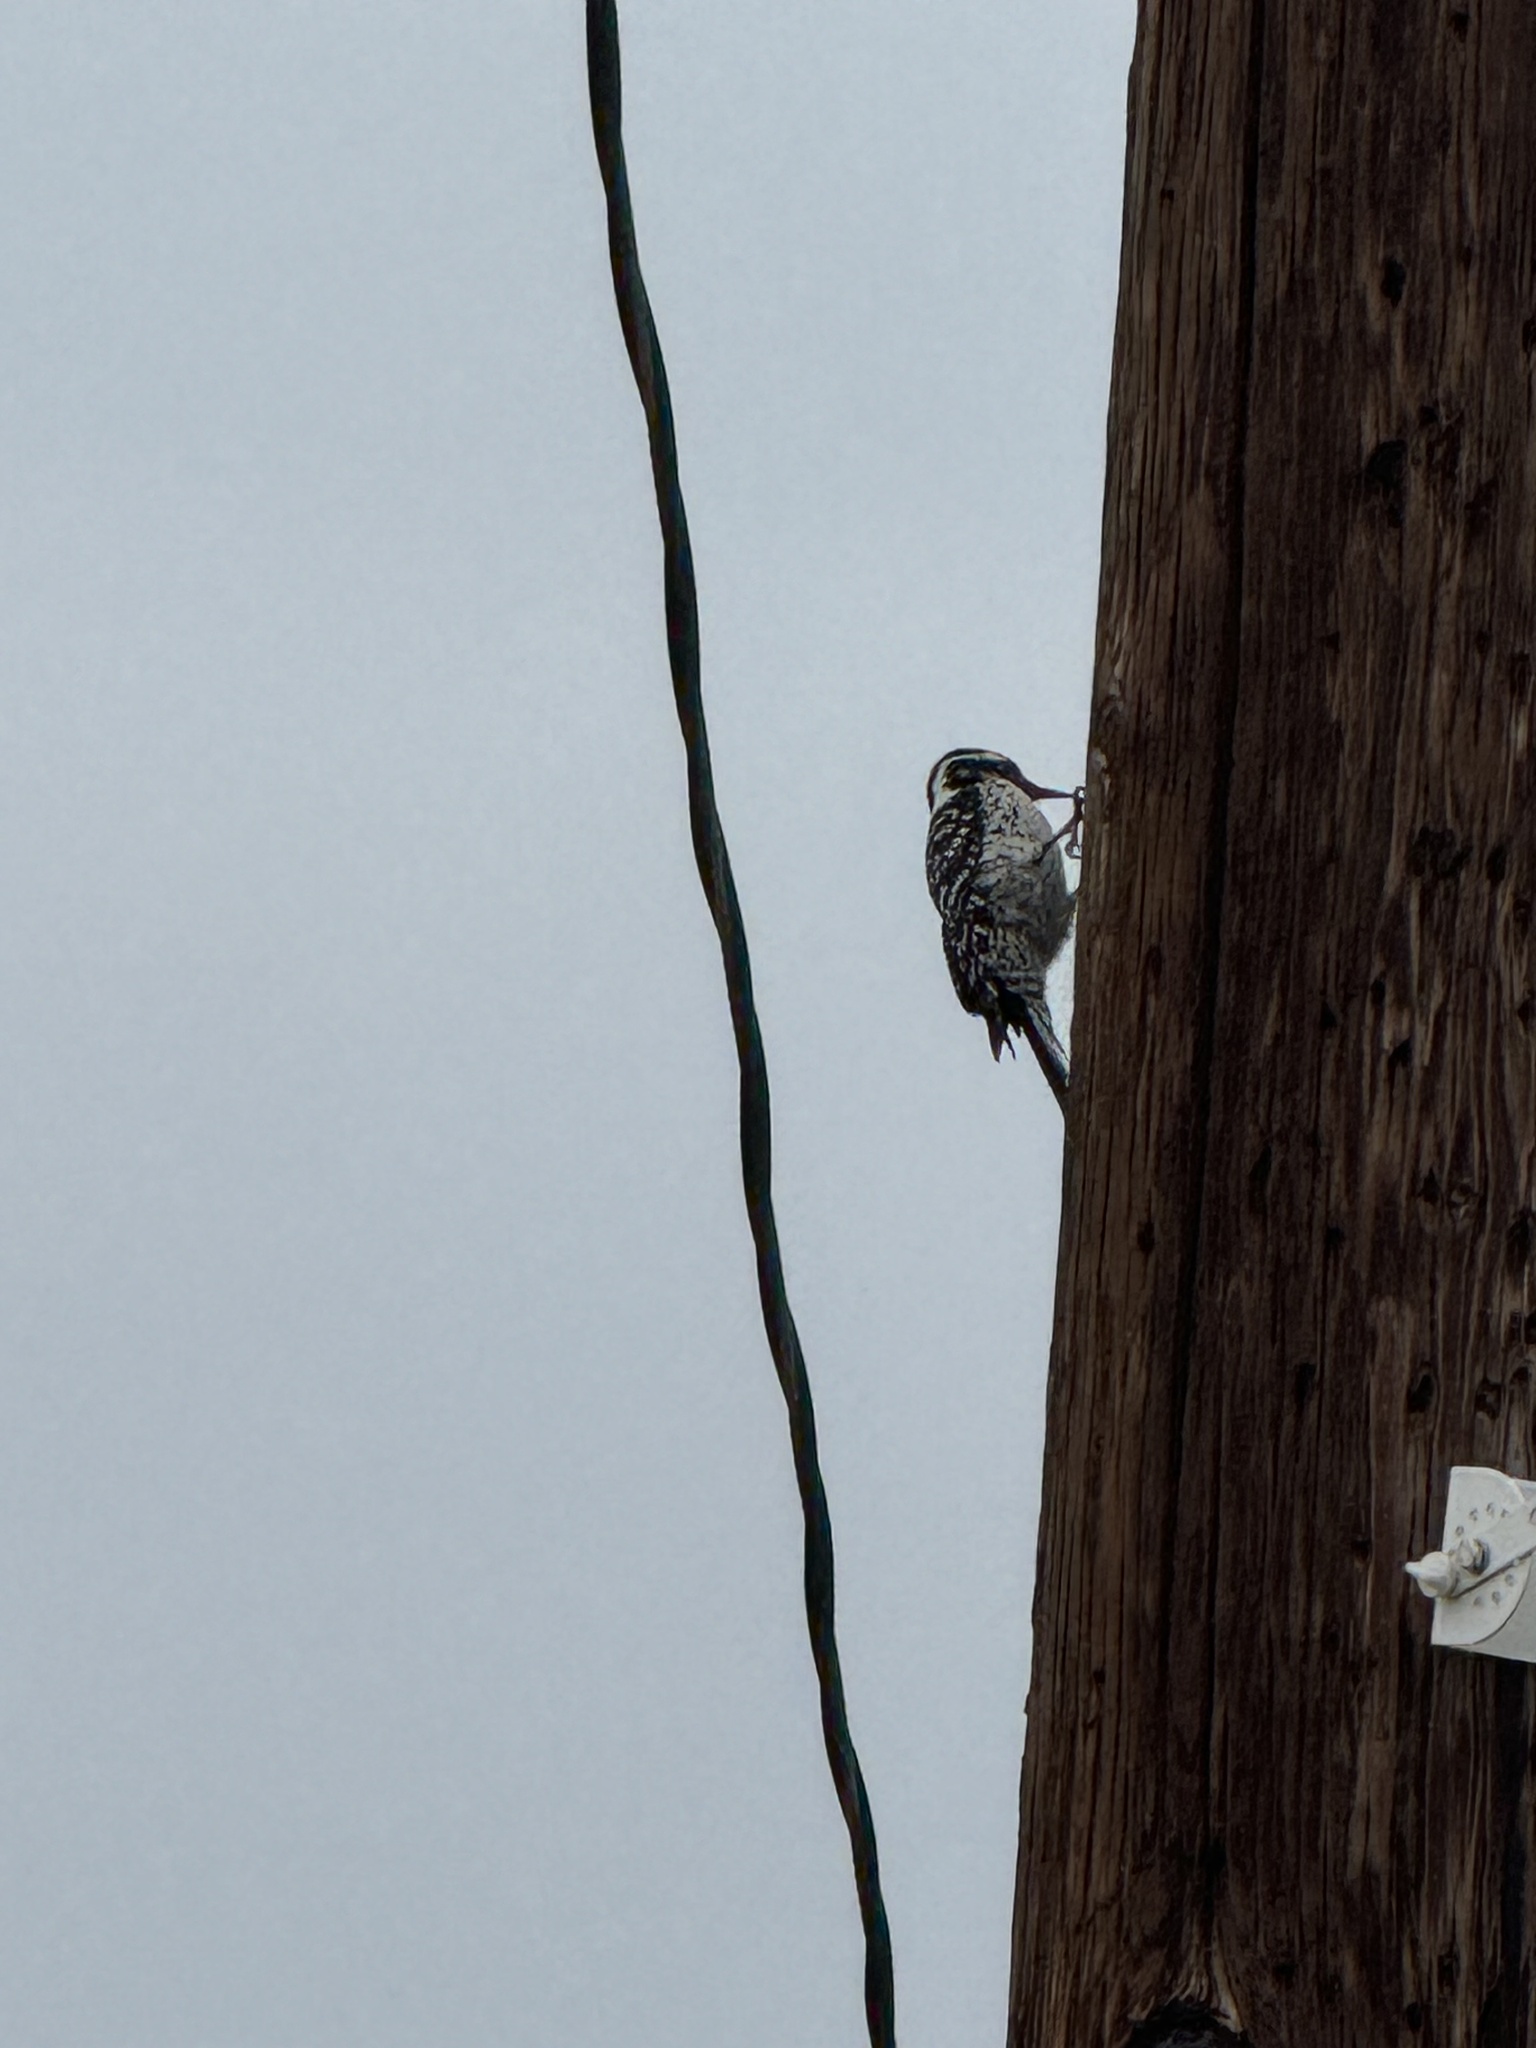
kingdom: Animalia
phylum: Chordata
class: Aves
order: Piciformes
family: Picidae
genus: Dryobates
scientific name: Dryobates nuttallii
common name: Nuttall's woodpecker
